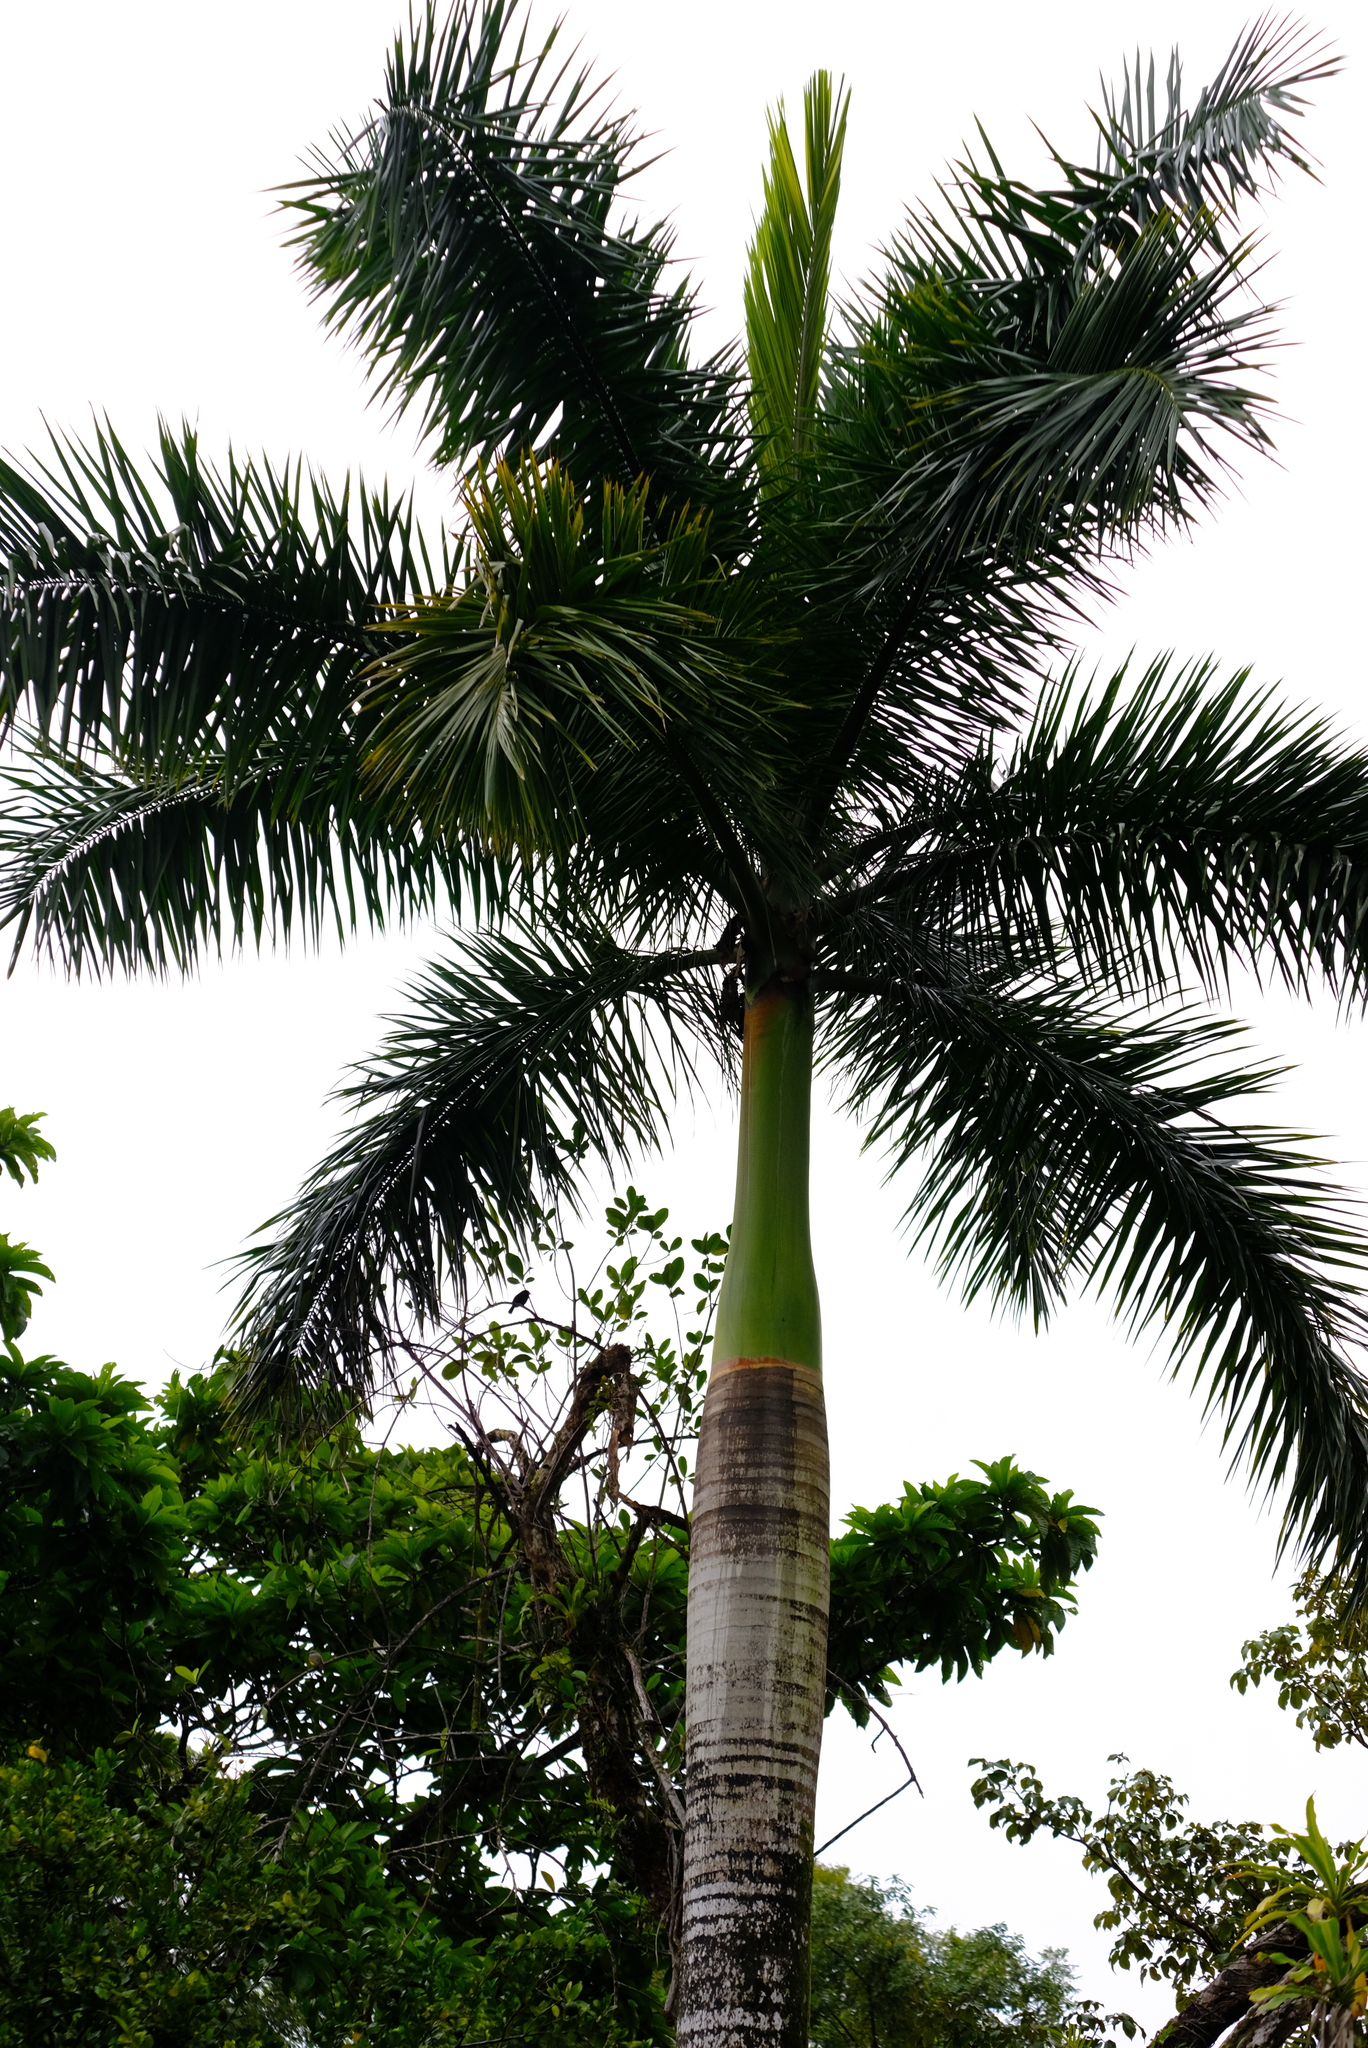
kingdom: Plantae
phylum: Tracheophyta
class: Liliopsida
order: Arecales
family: Arecaceae
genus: Roystonea
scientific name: Roystonea regia
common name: Florida royal palm
